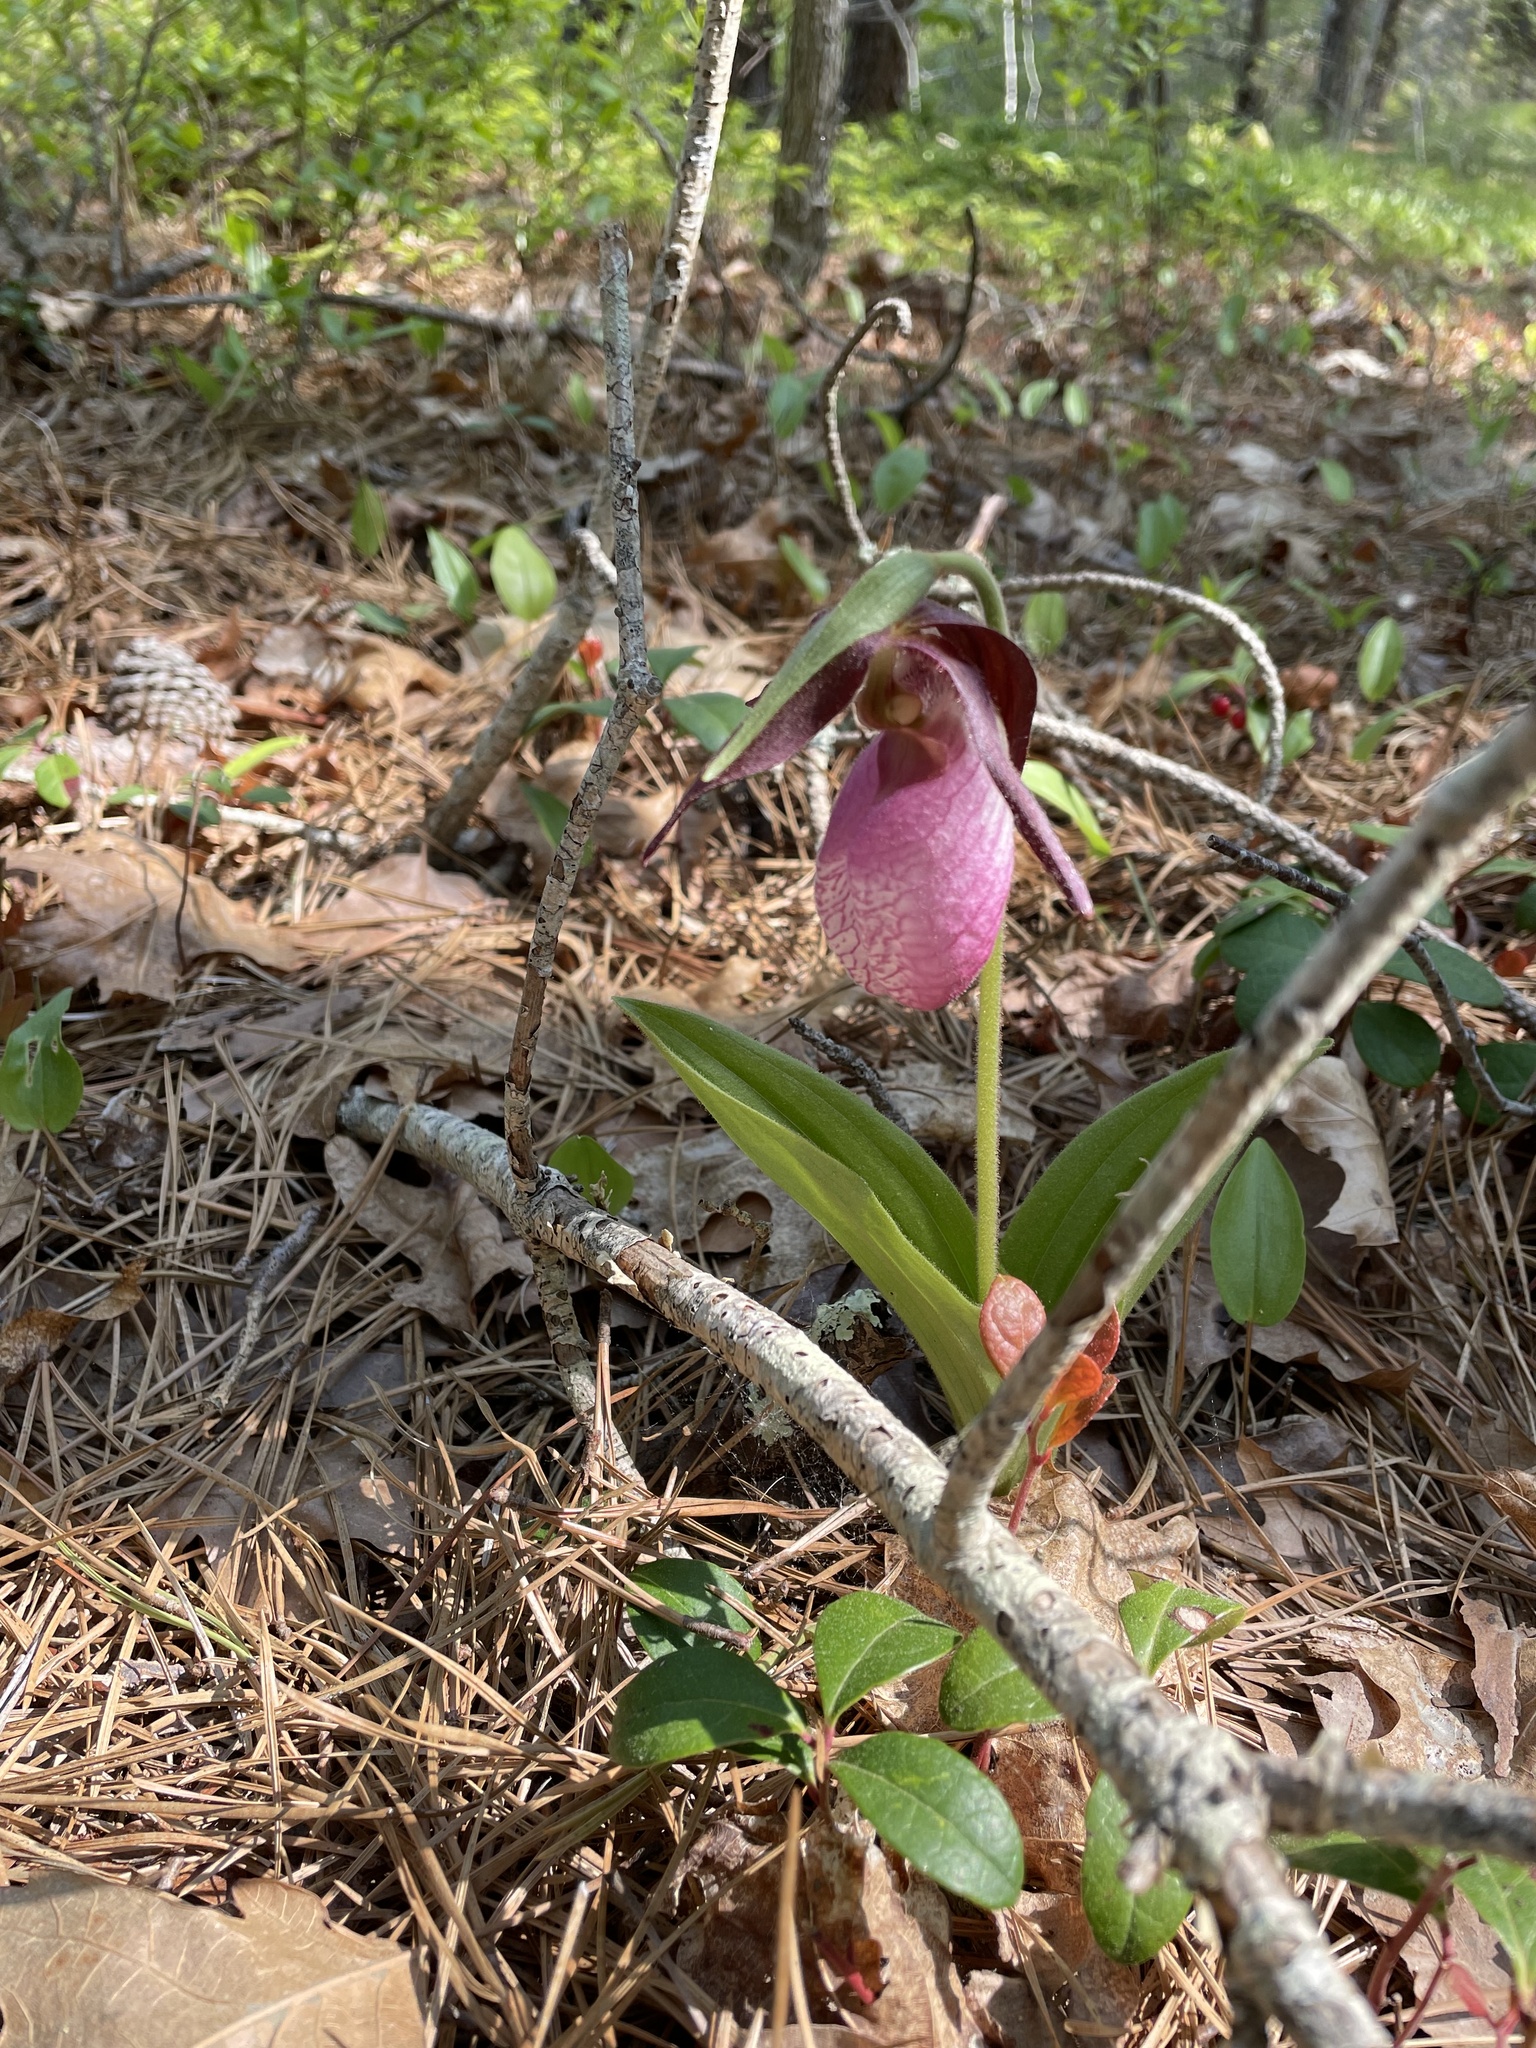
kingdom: Plantae
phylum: Tracheophyta
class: Liliopsida
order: Asparagales
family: Orchidaceae
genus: Cypripedium
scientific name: Cypripedium acaule
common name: Pink lady's-slipper
